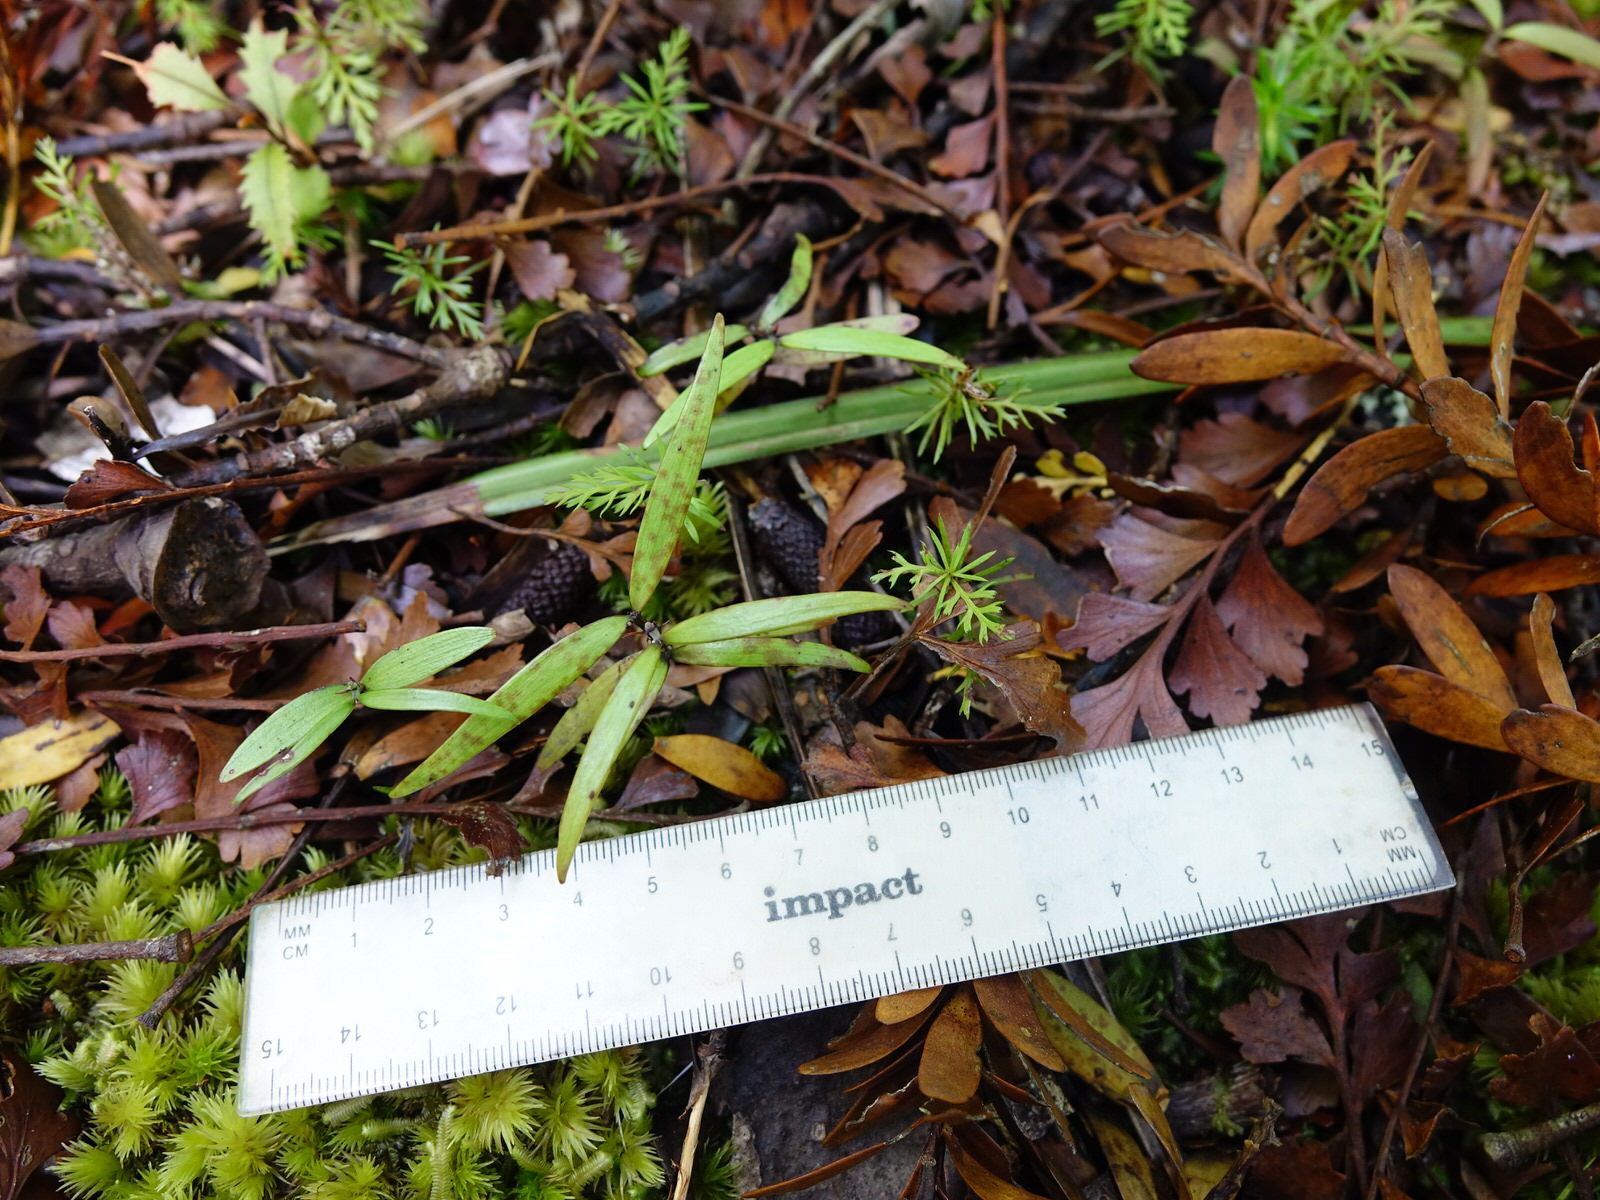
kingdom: Plantae
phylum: Tracheophyta
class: Pinopsida
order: Pinales
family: Araucariaceae
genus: Agathis
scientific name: Agathis australis
